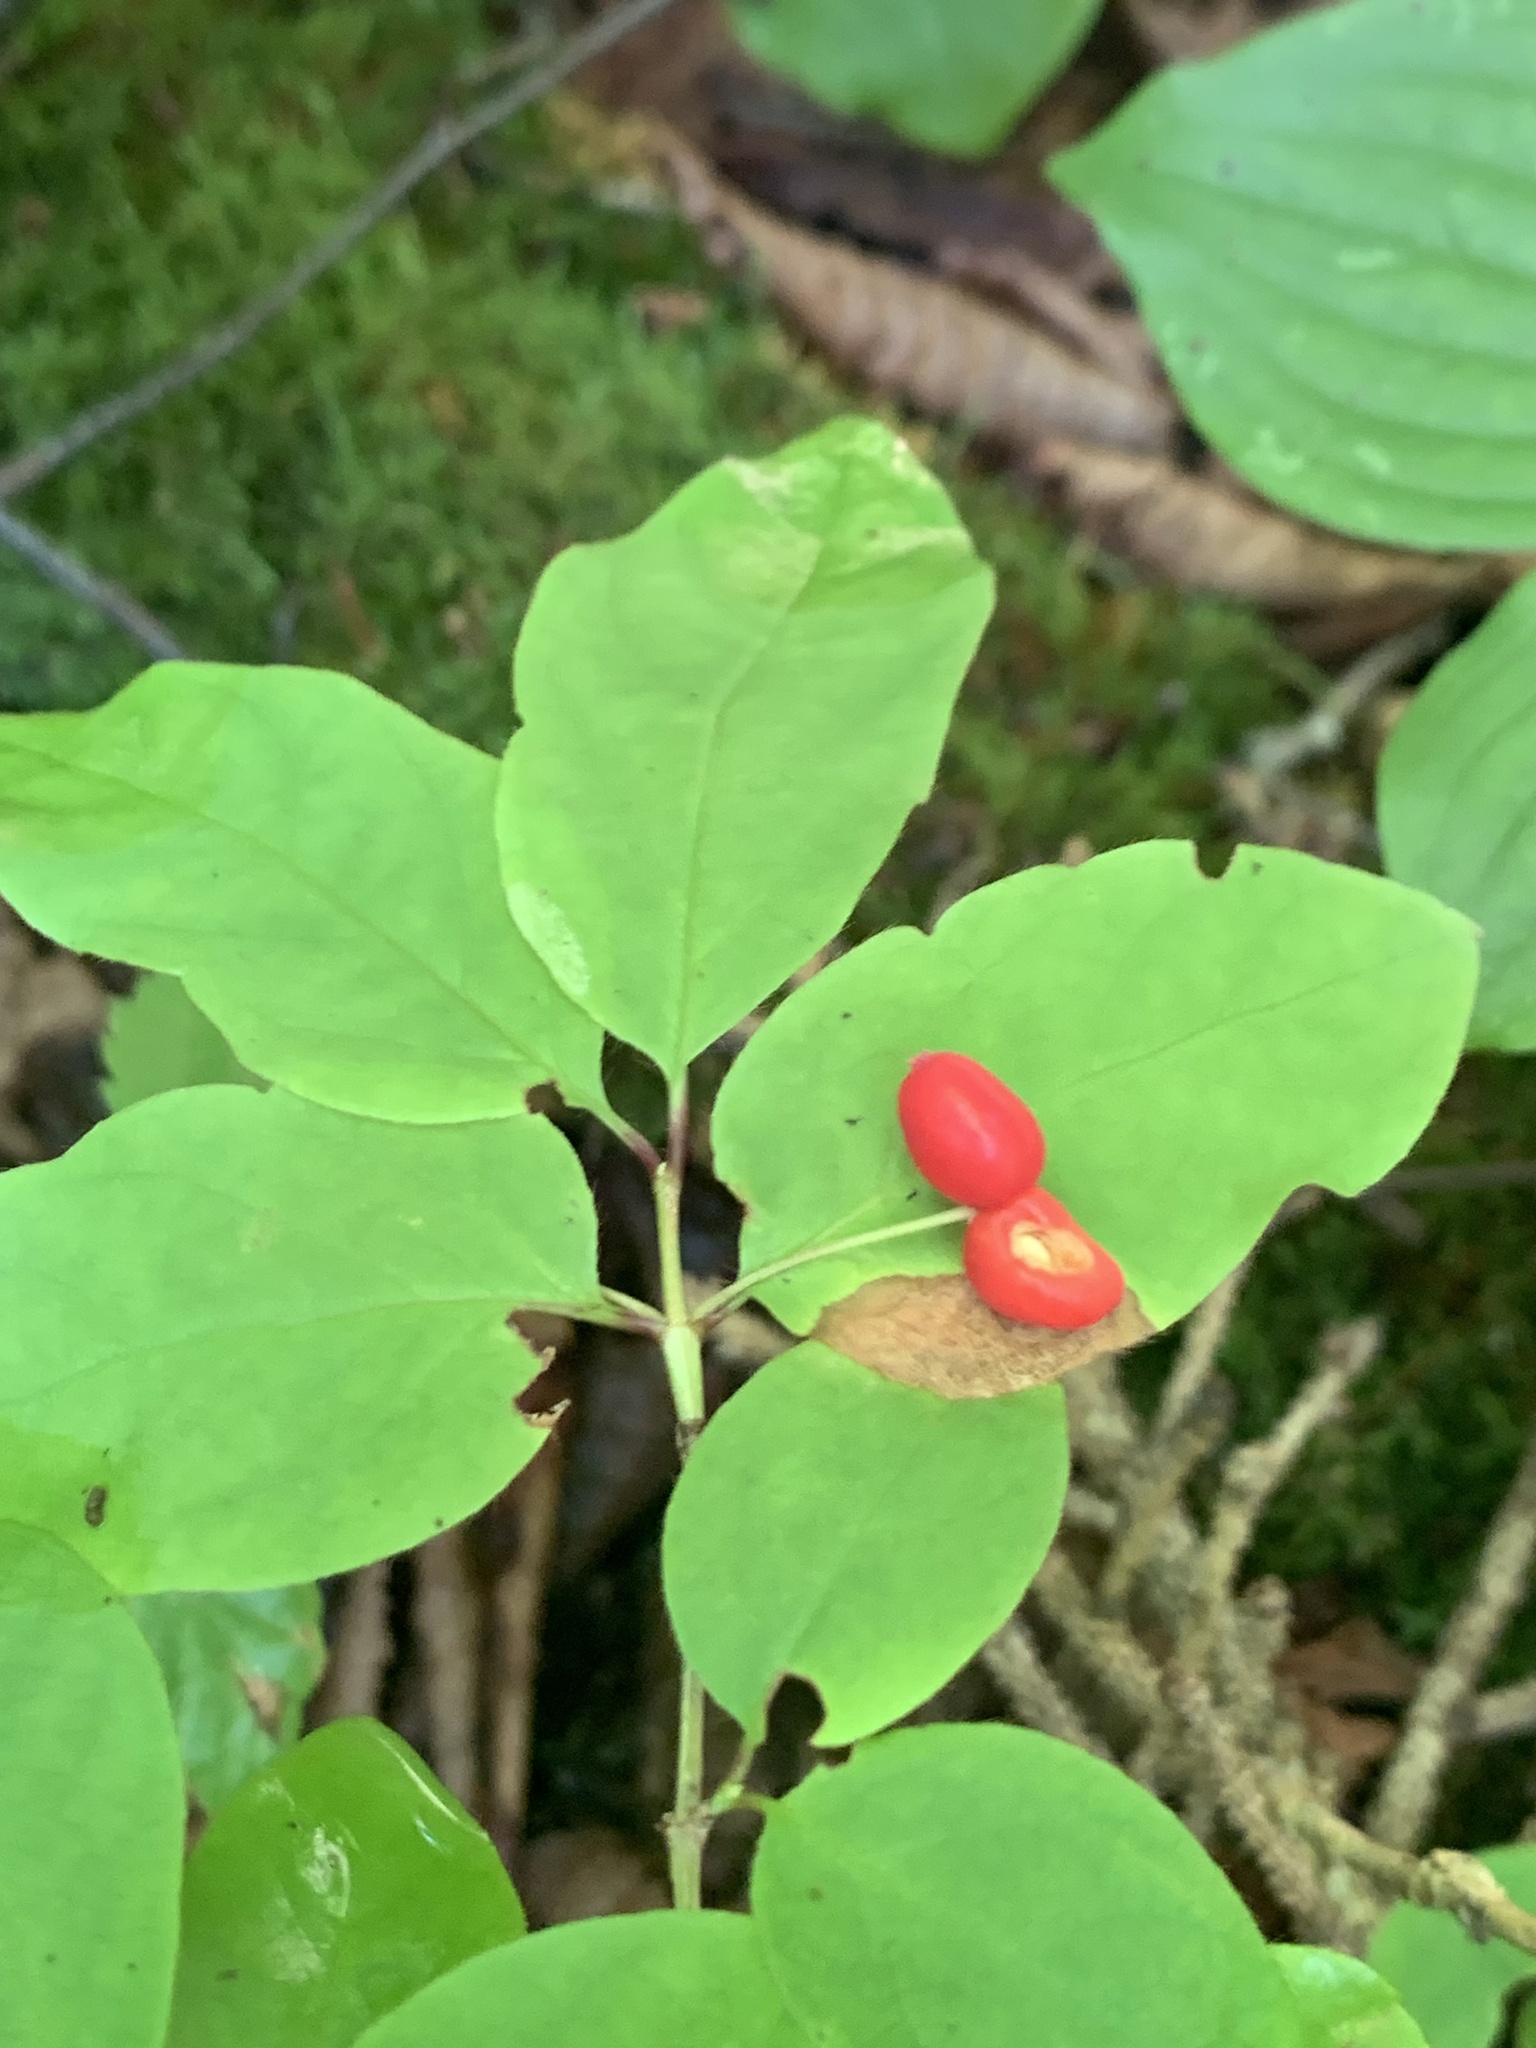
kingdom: Plantae
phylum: Tracheophyta
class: Magnoliopsida
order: Dipsacales
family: Caprifoliaceae
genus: Lonicera
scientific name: Lonicera canadensis
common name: American fly-honeysuckle
